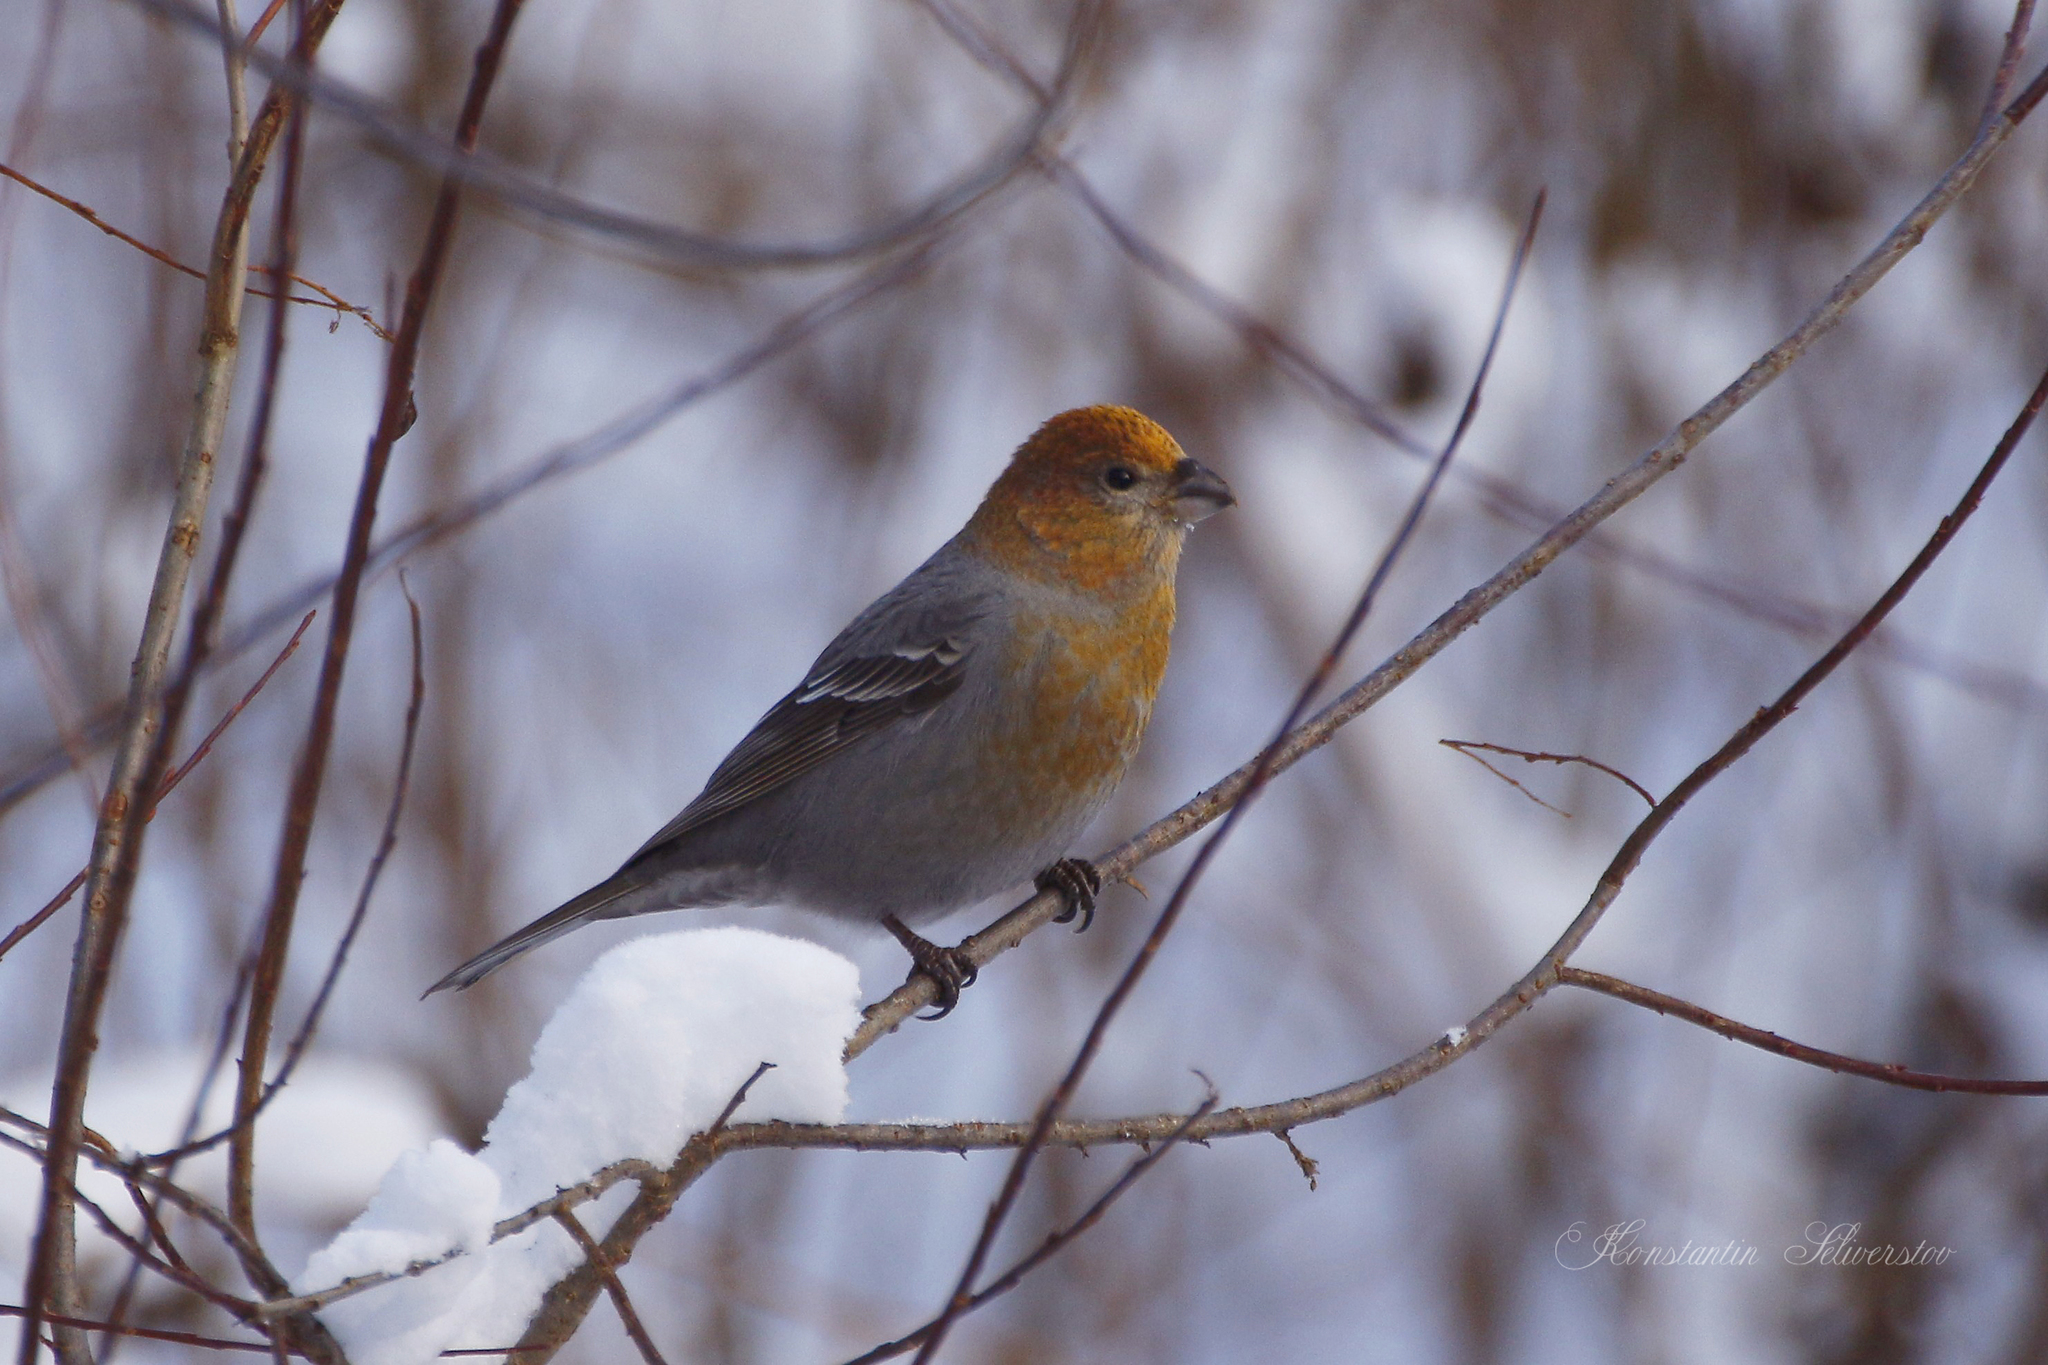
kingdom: Animalia
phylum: Chordata
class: Aves
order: Passeriformes
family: Fringillidae
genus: Pinicola
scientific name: Pinicola enucleator
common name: Pine grosbeak
